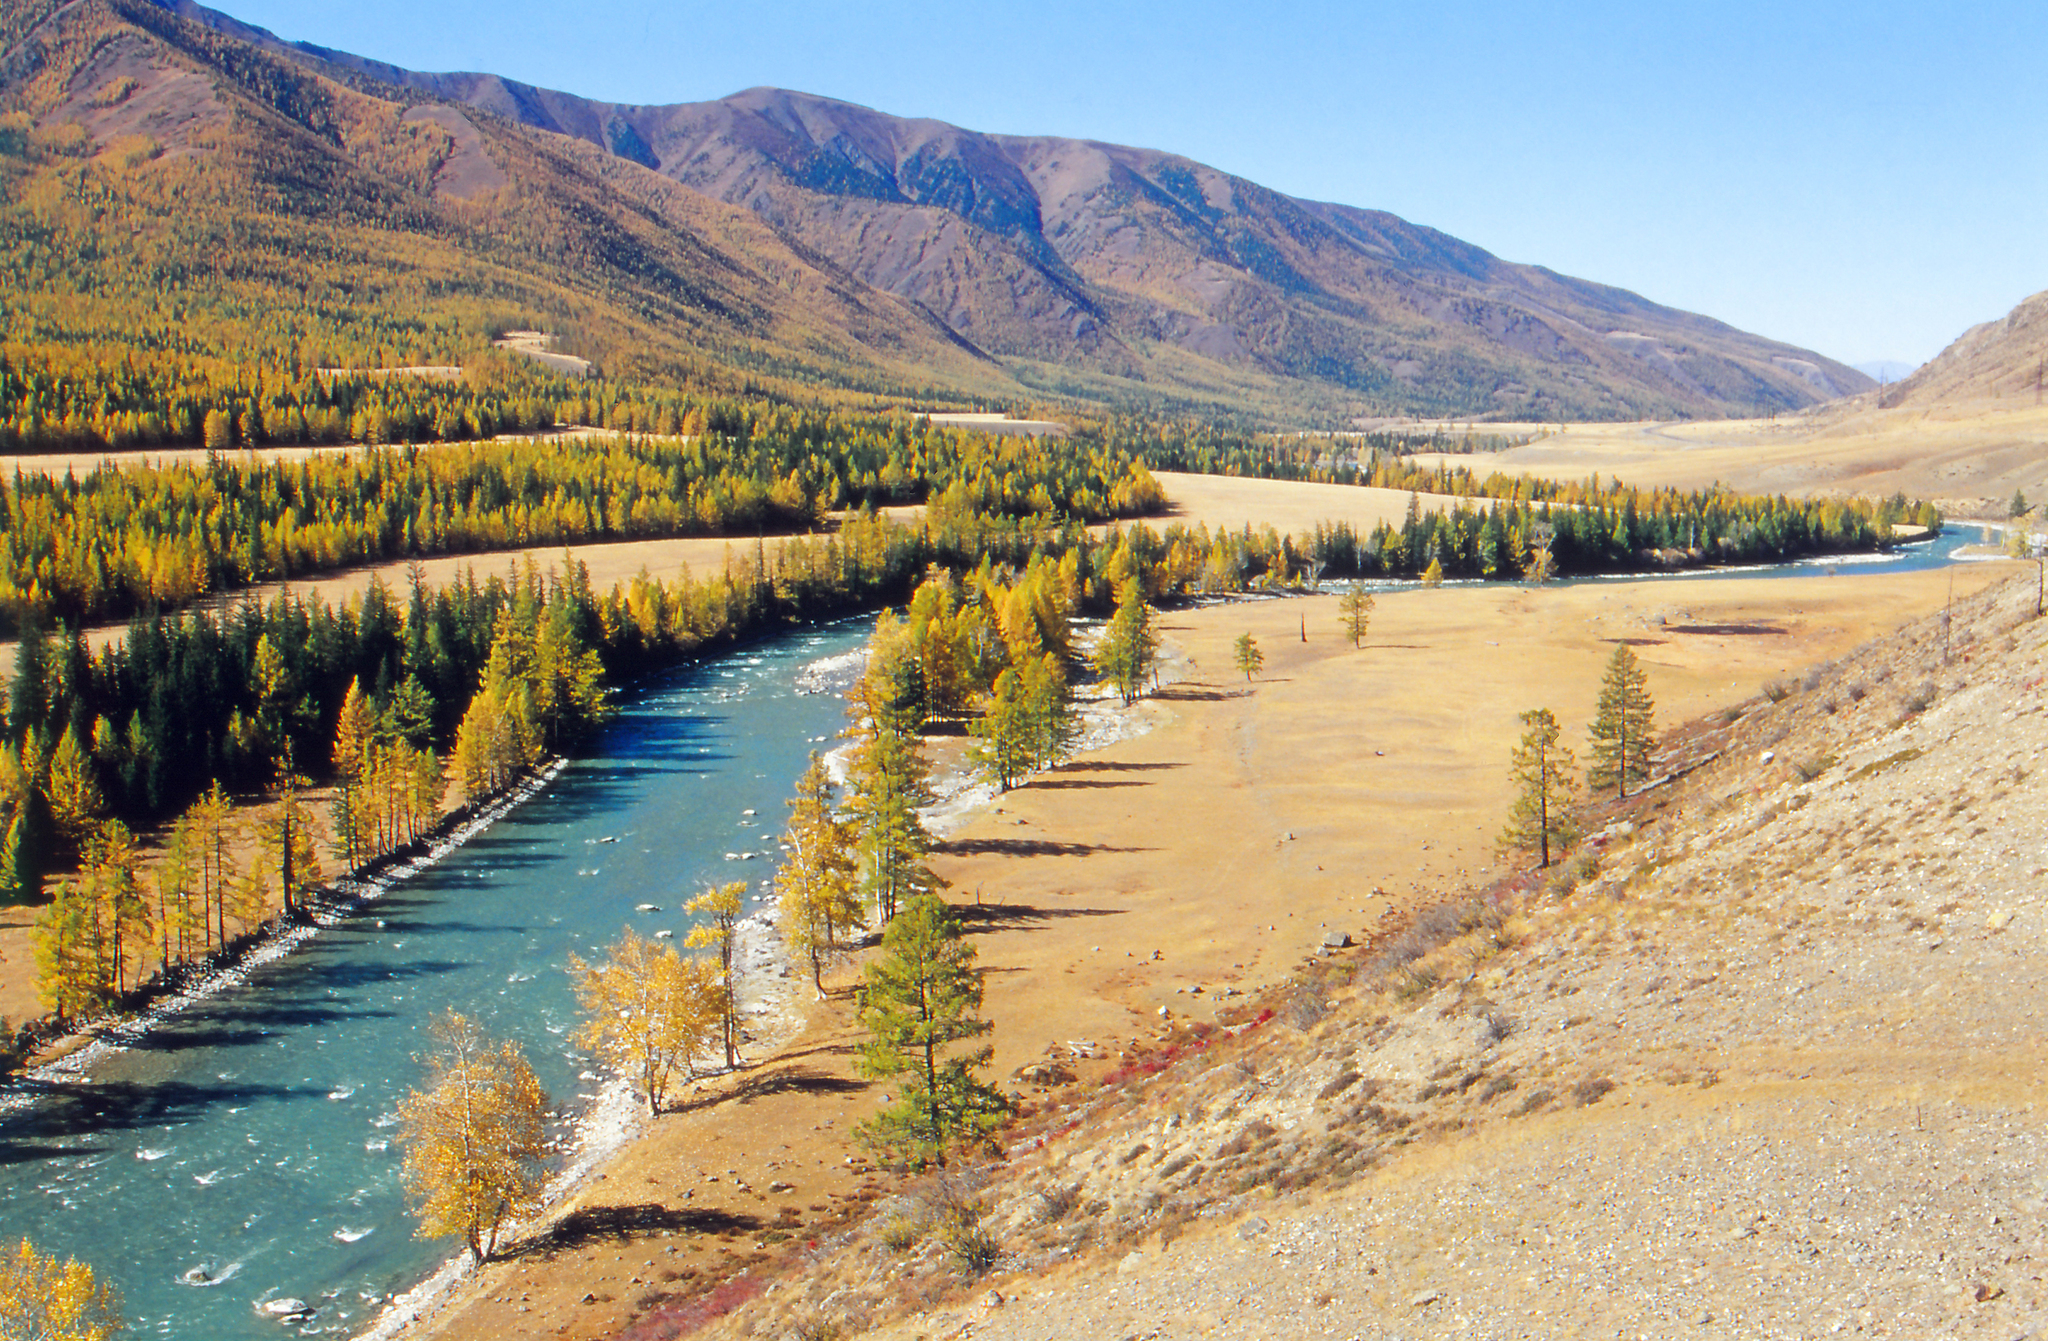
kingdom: Plantae
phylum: Tracheophyta
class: Magnoliopsida
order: Malpighiales
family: Salicaceae
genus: Populus
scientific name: Populus laurifolia
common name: Laurel-leaf poplar
